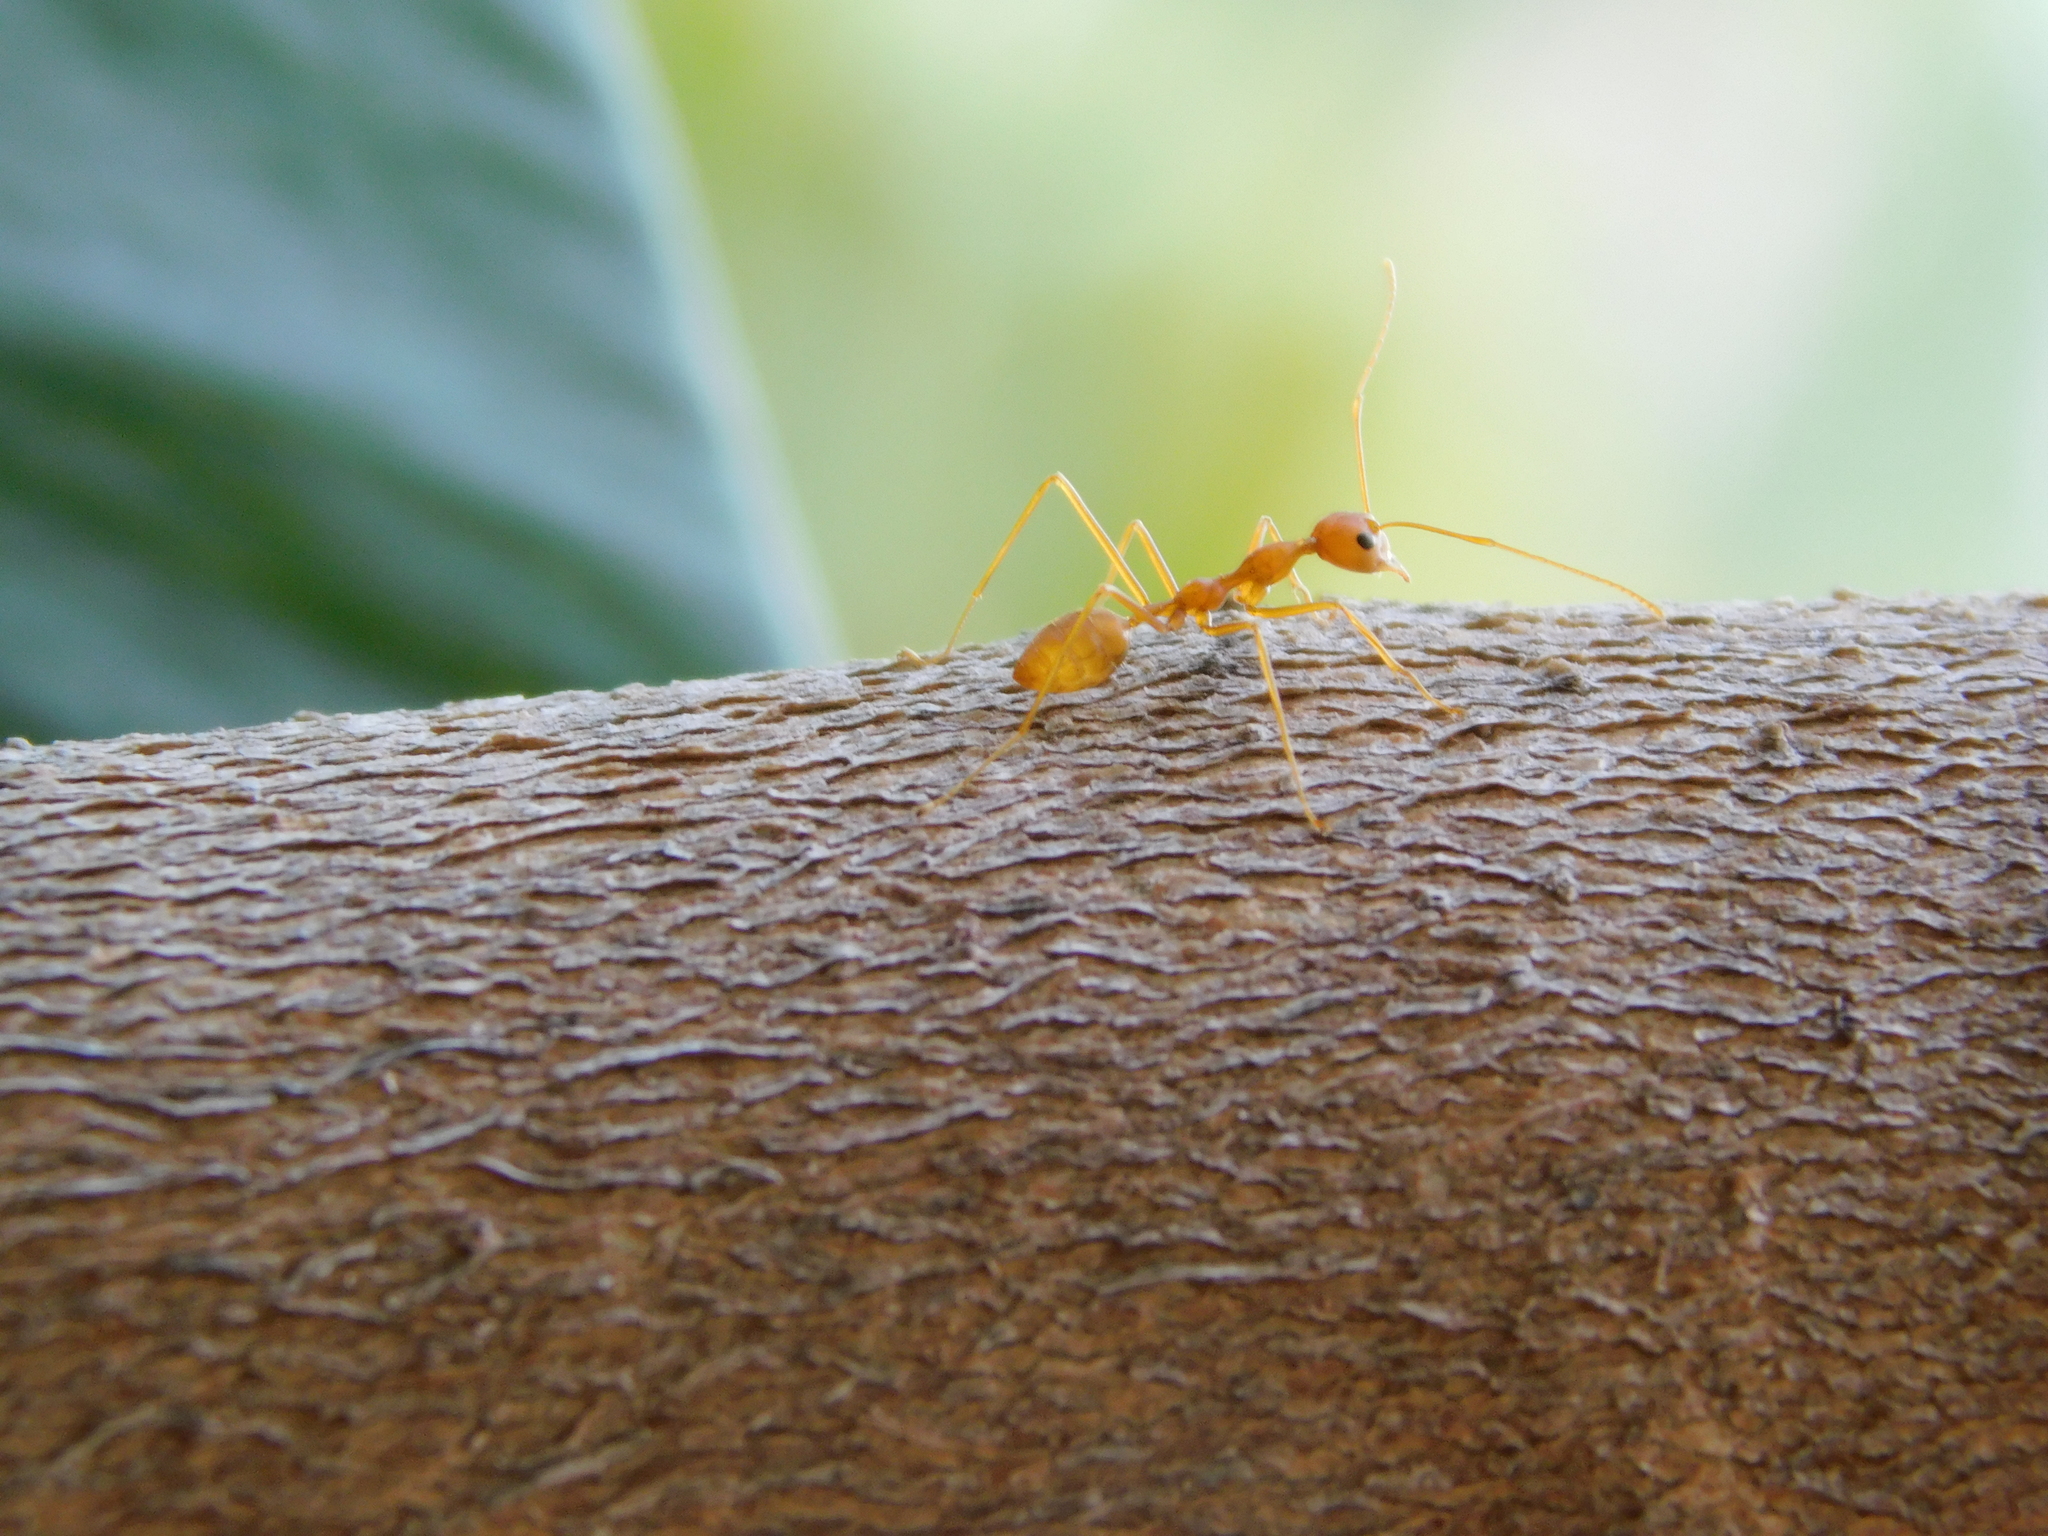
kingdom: Animalia
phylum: Arthropoda
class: Insecta
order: Hymenoptera
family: Formicidae
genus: Oecophylla
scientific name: Oecophylla smaragdina
